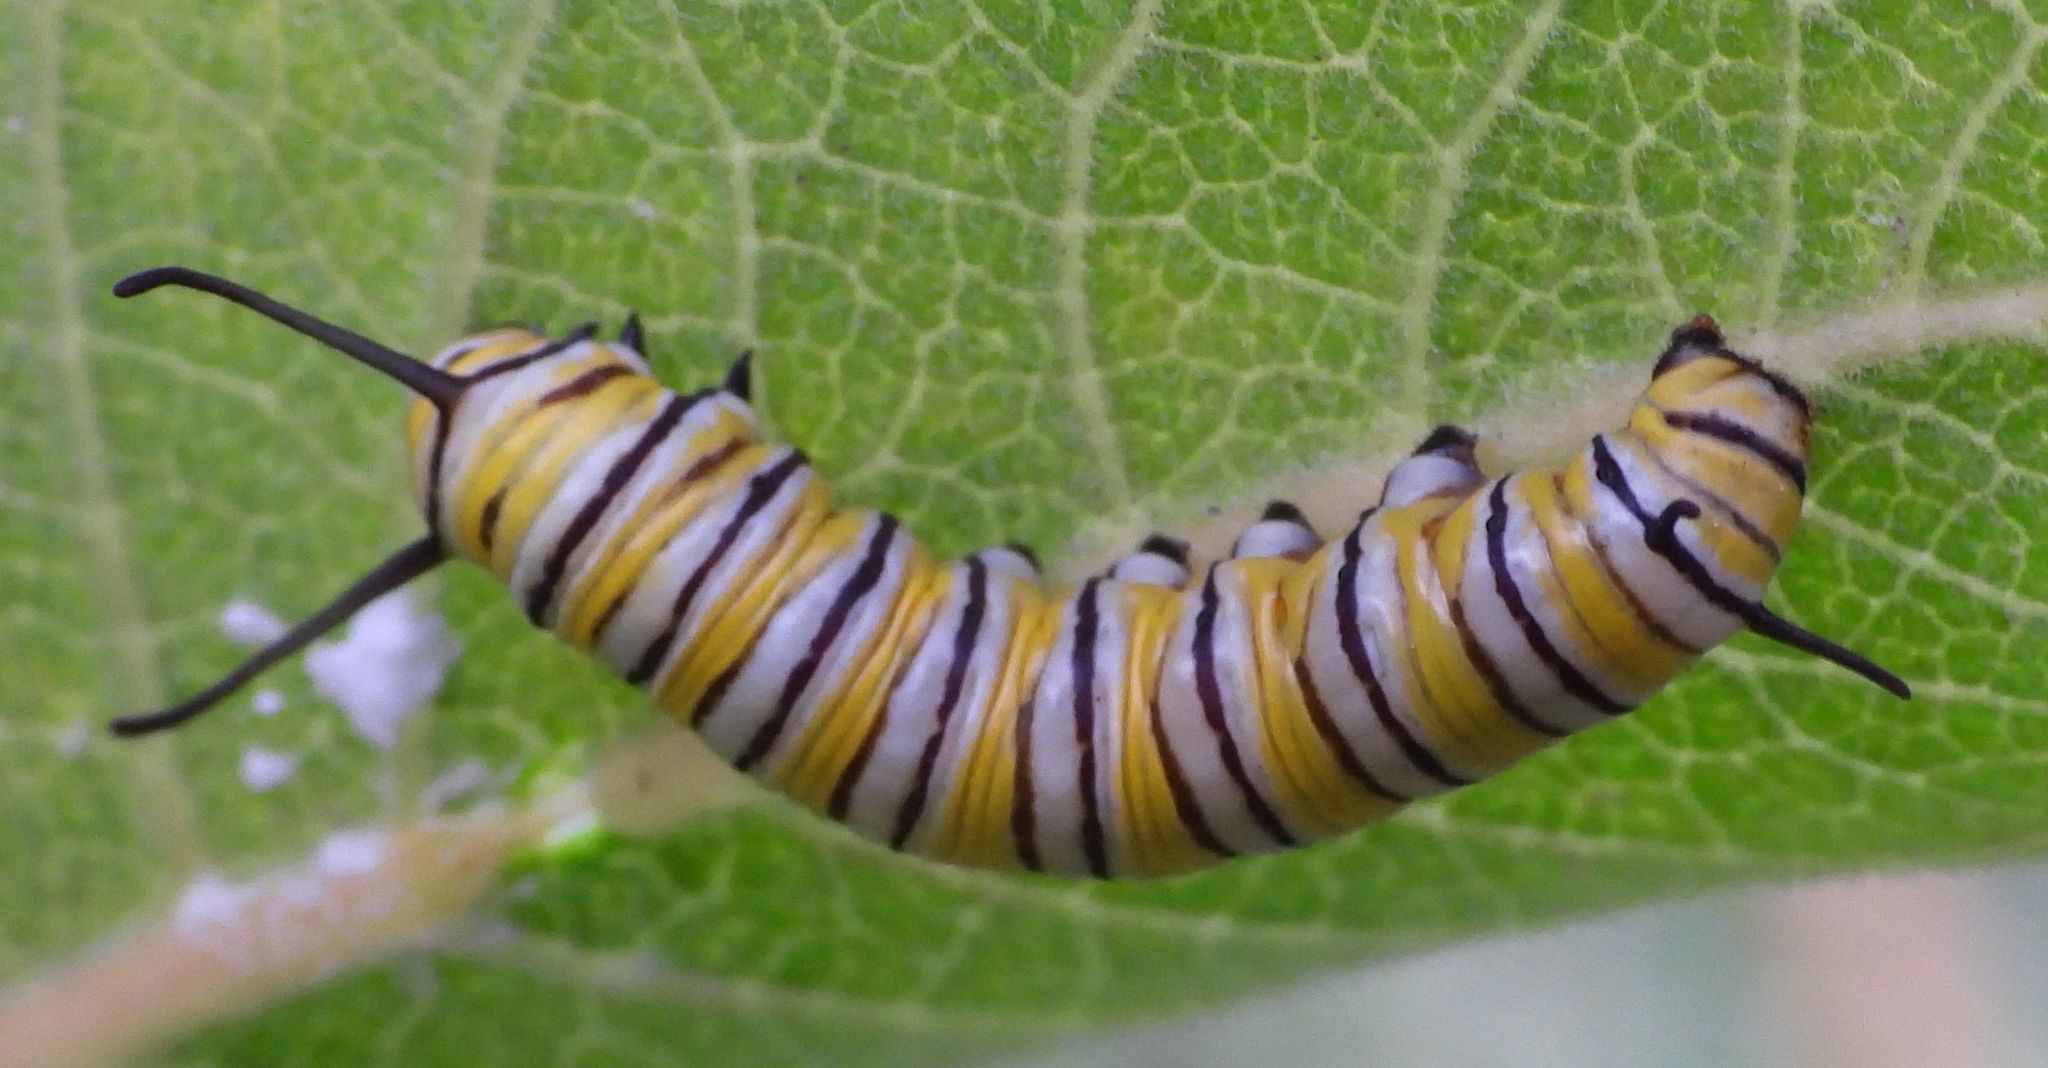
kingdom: Animalia
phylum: Arthropoda
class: Insecta
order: Lepidoptera
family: Nymphalidae
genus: Danaus
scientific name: Danaus plexippus
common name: Monarch
